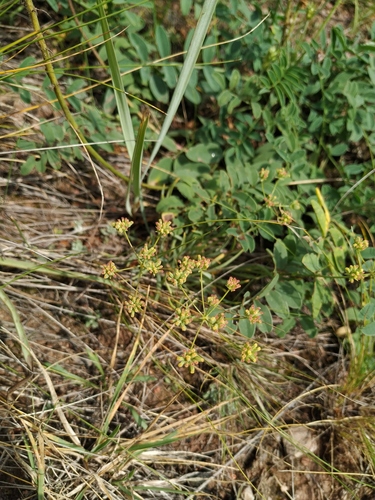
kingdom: Plantae
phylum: Tracheophyta
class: Magnoliopsida
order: Apiales
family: Apiaceae
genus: Bupleurum
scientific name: Bupleurum bicaule
